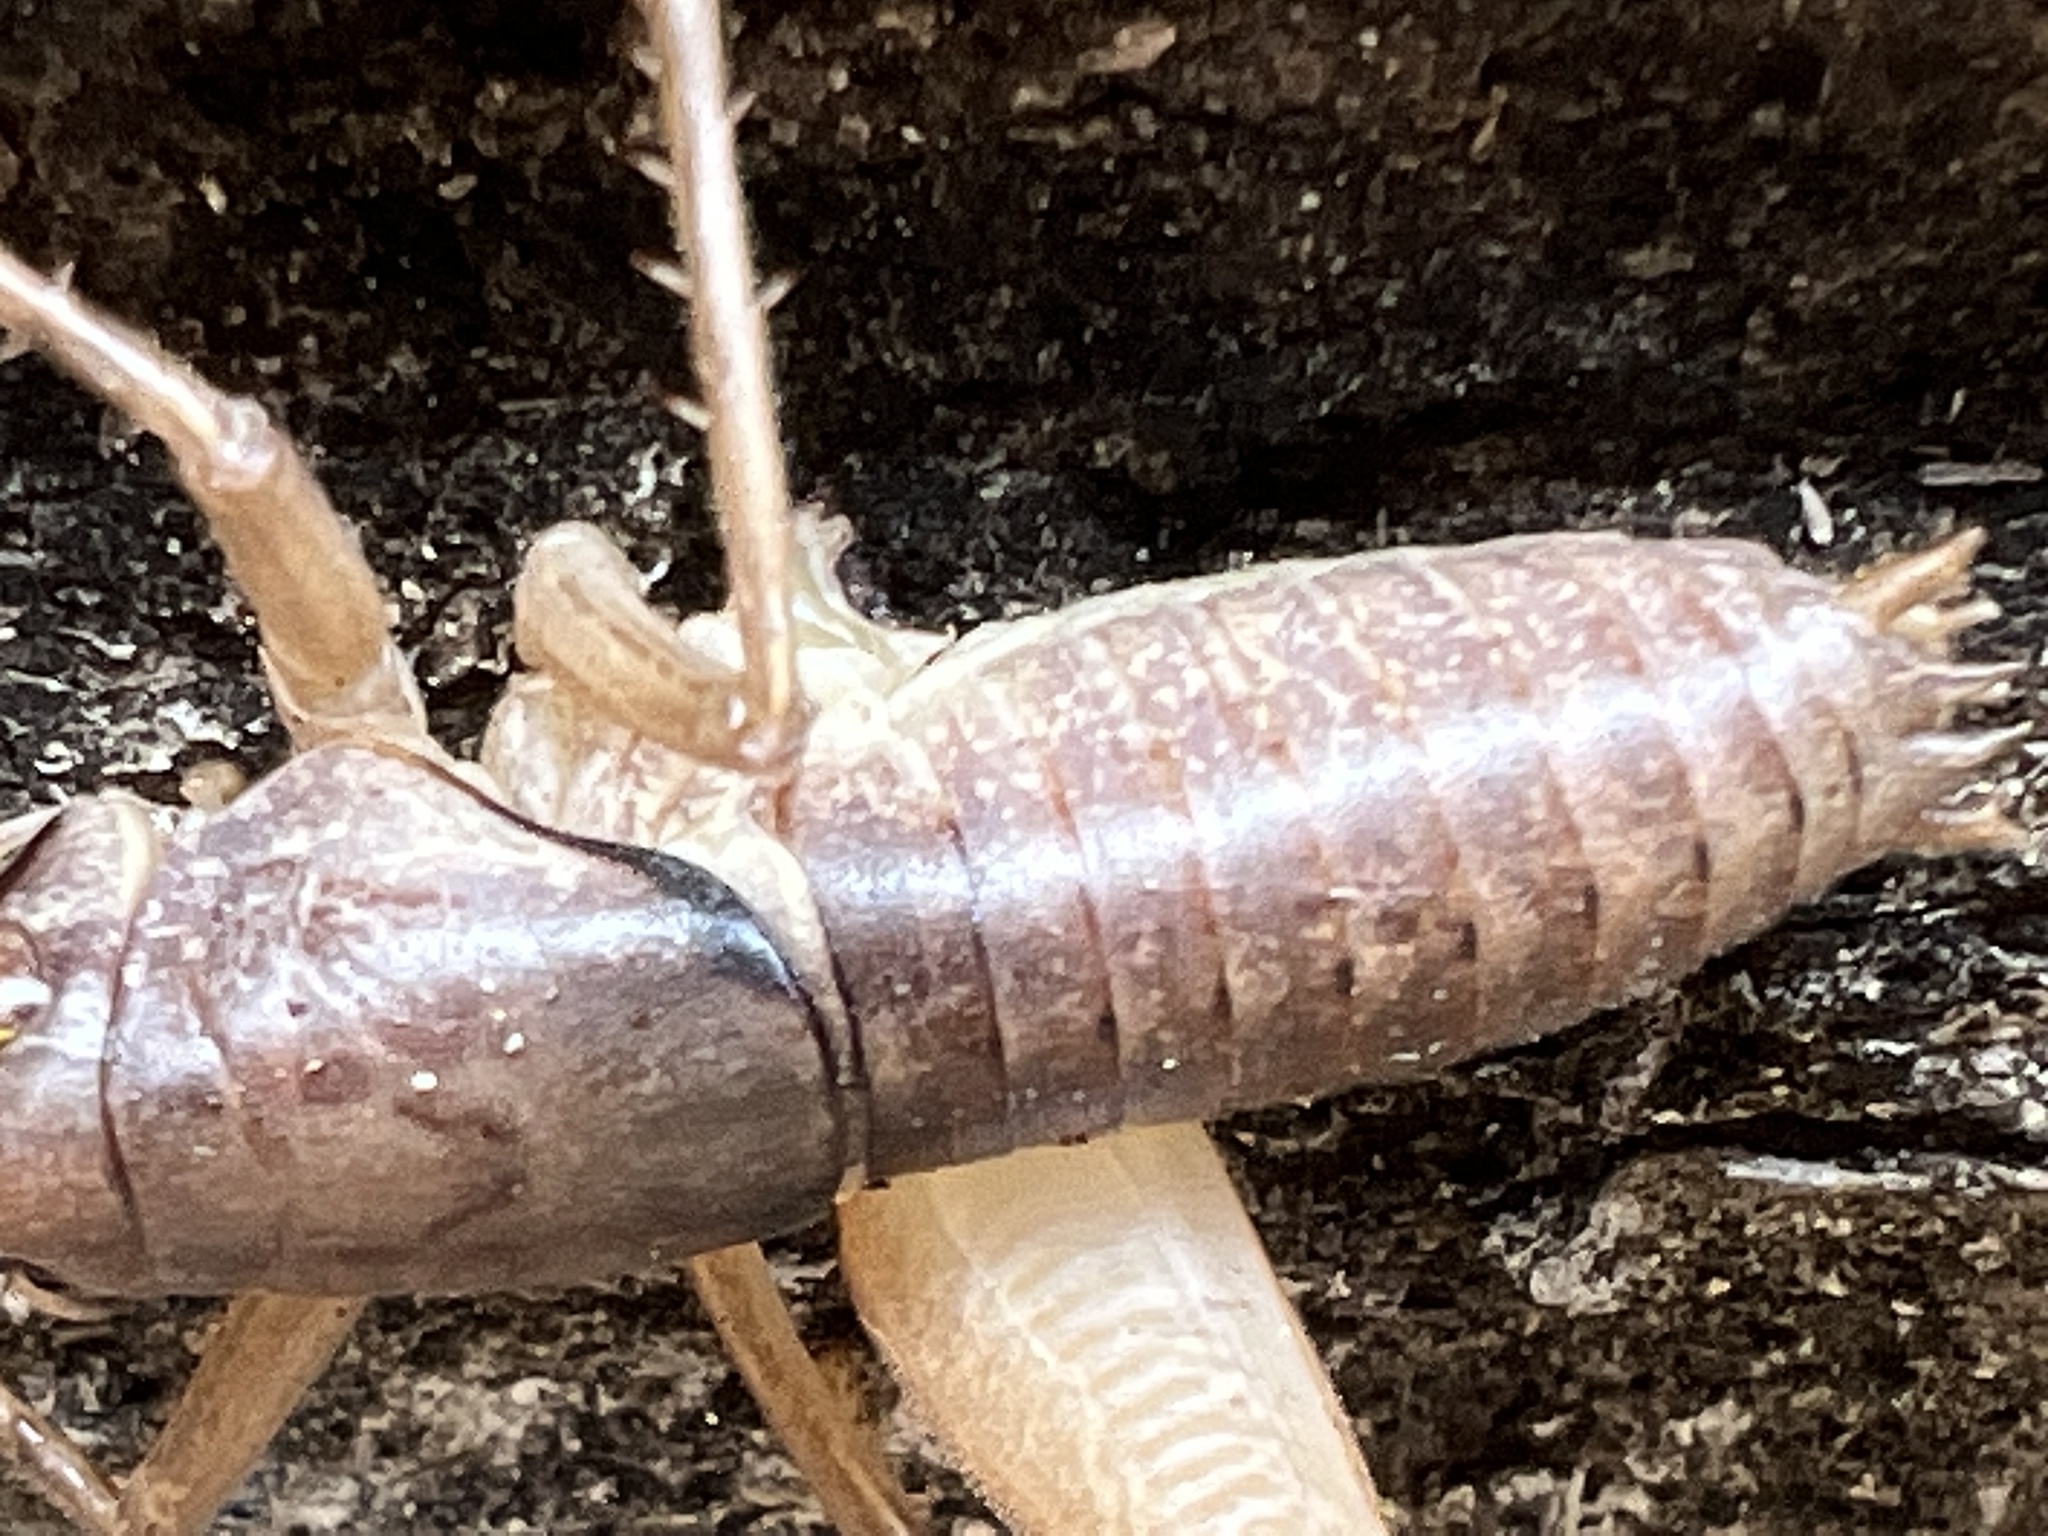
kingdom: Animalia
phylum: Arthropoda
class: Insecta
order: Orthoptera
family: Tettigoniidae
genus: Pediodectes
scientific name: Pediodectes bruneri
